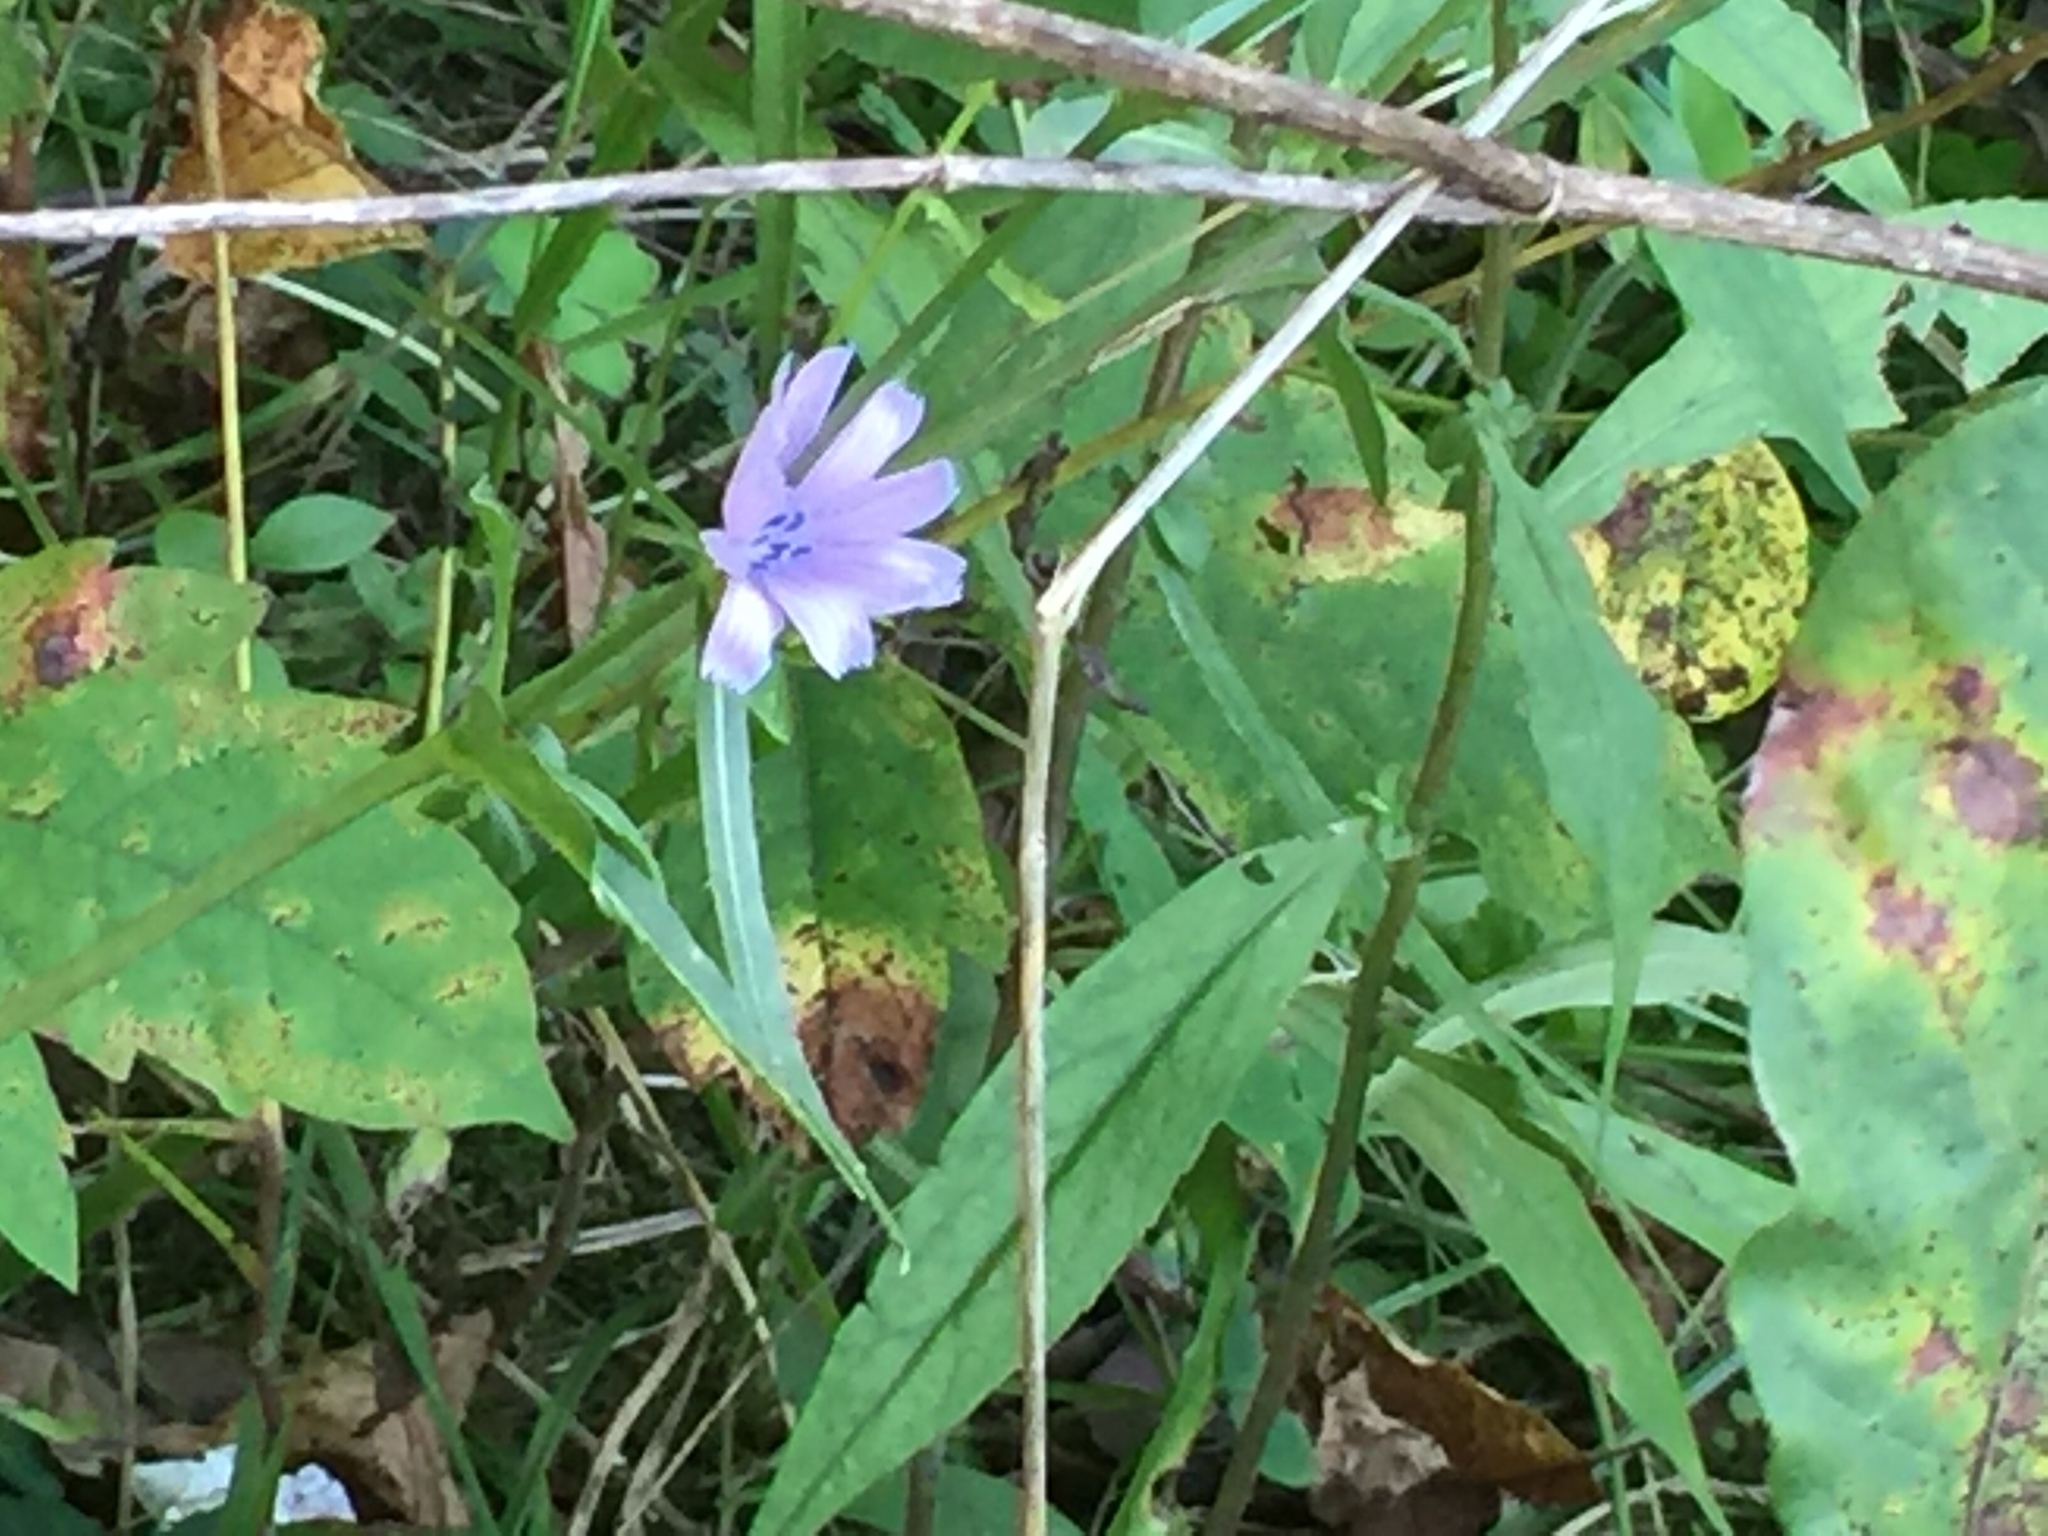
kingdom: Plantae
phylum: Tracheophyta
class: Magnoliopsida
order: Asterales
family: Asteraceae
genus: Cichorium
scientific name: Cichorium intybus
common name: Chicory
